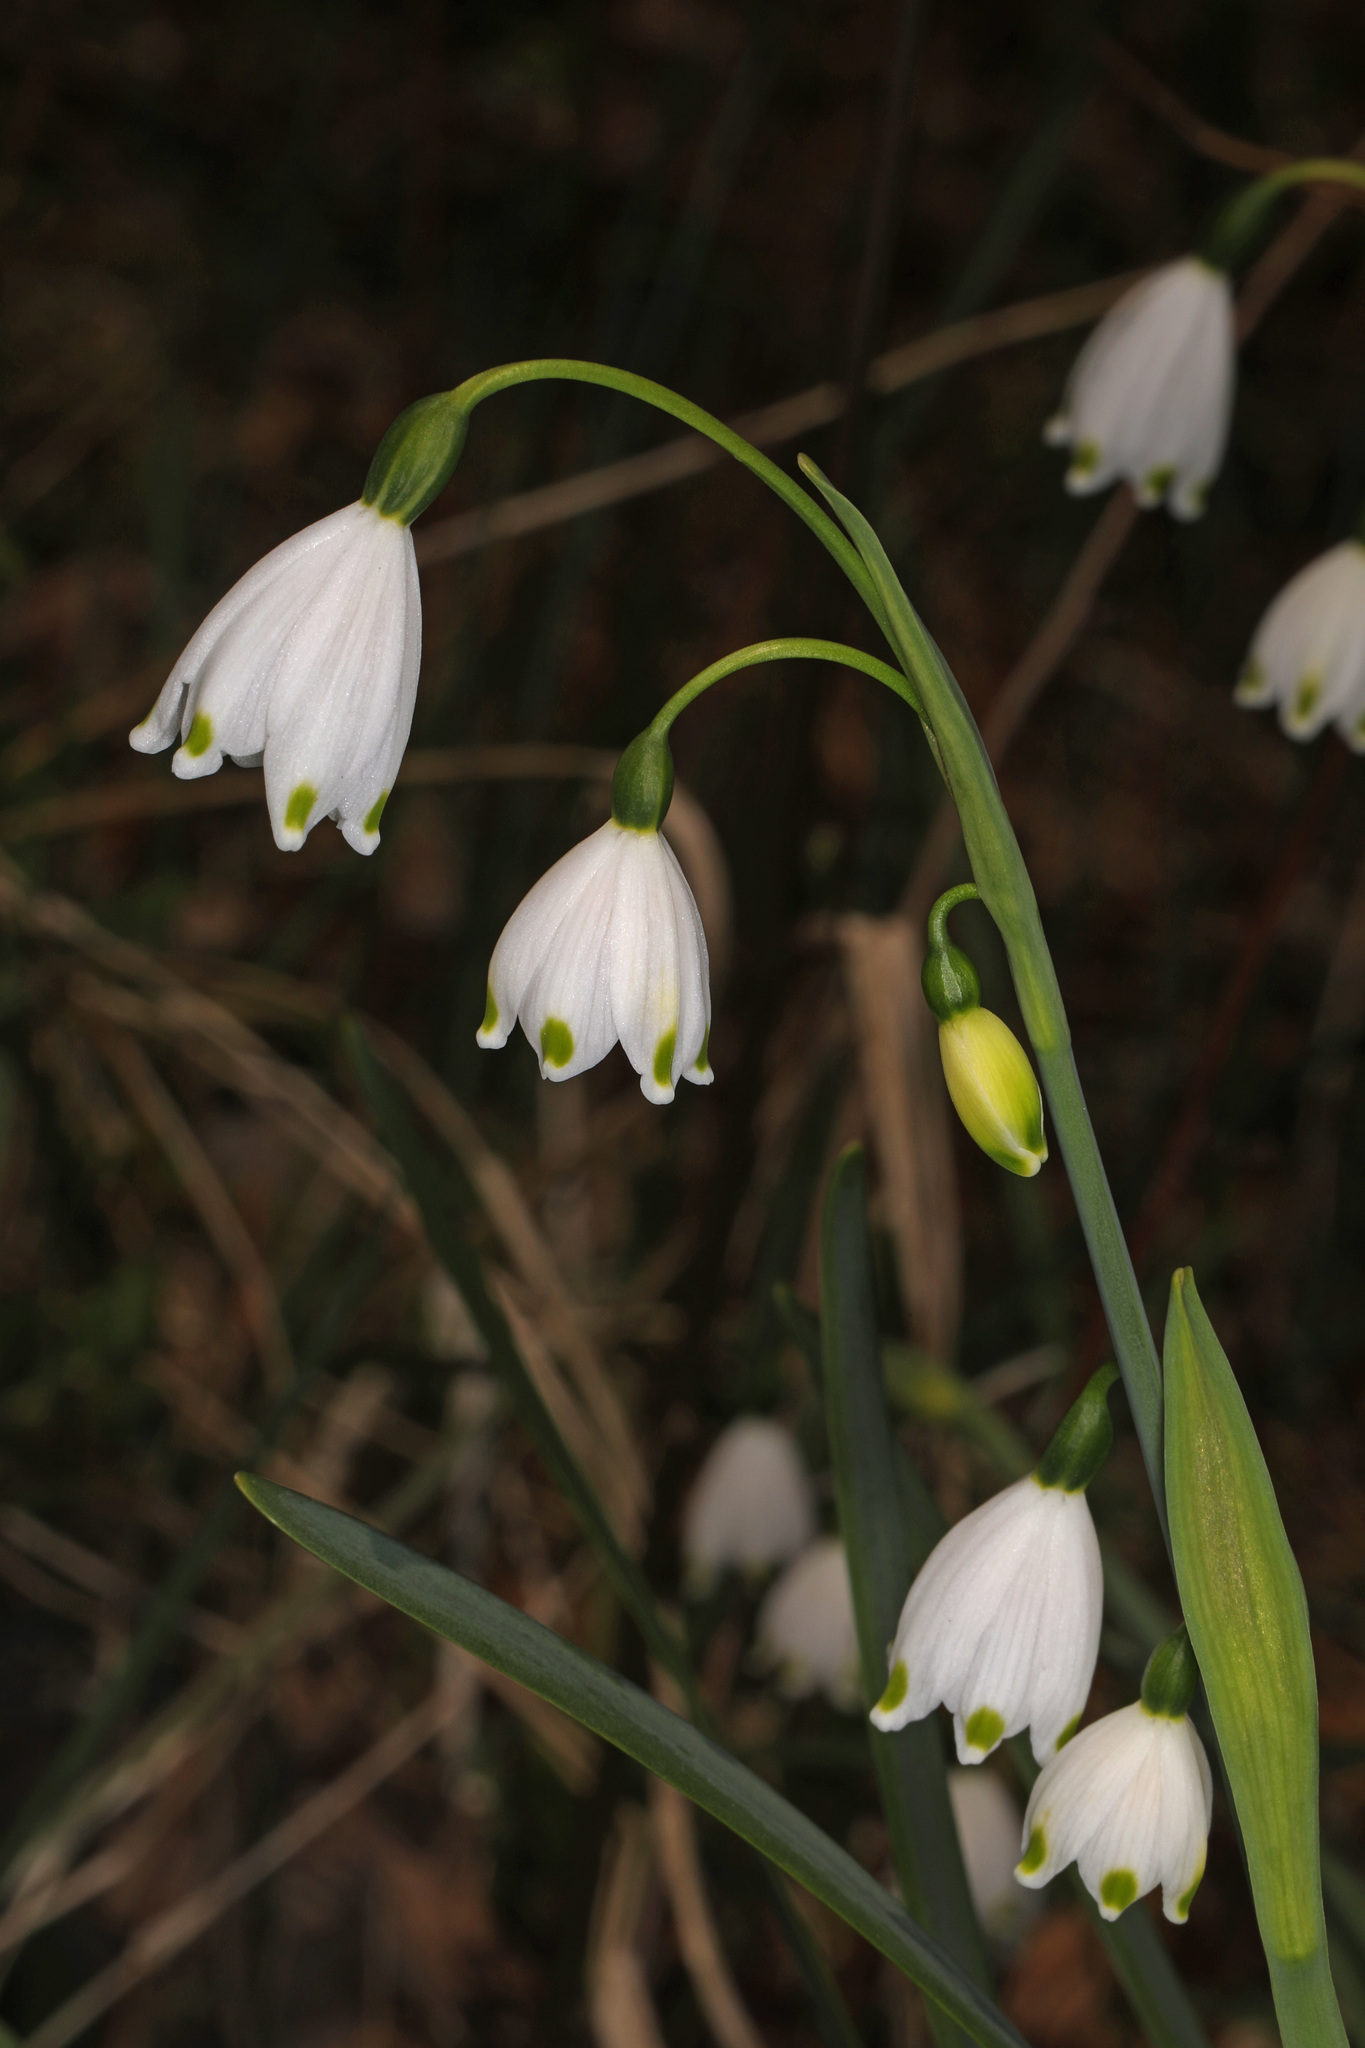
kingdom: Plantae
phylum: Tracheophyta
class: Liliopsida
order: Asparagales
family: Amaryllidaceae
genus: Leucojum
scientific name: Leucojum aestivum
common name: Summer snowflake
